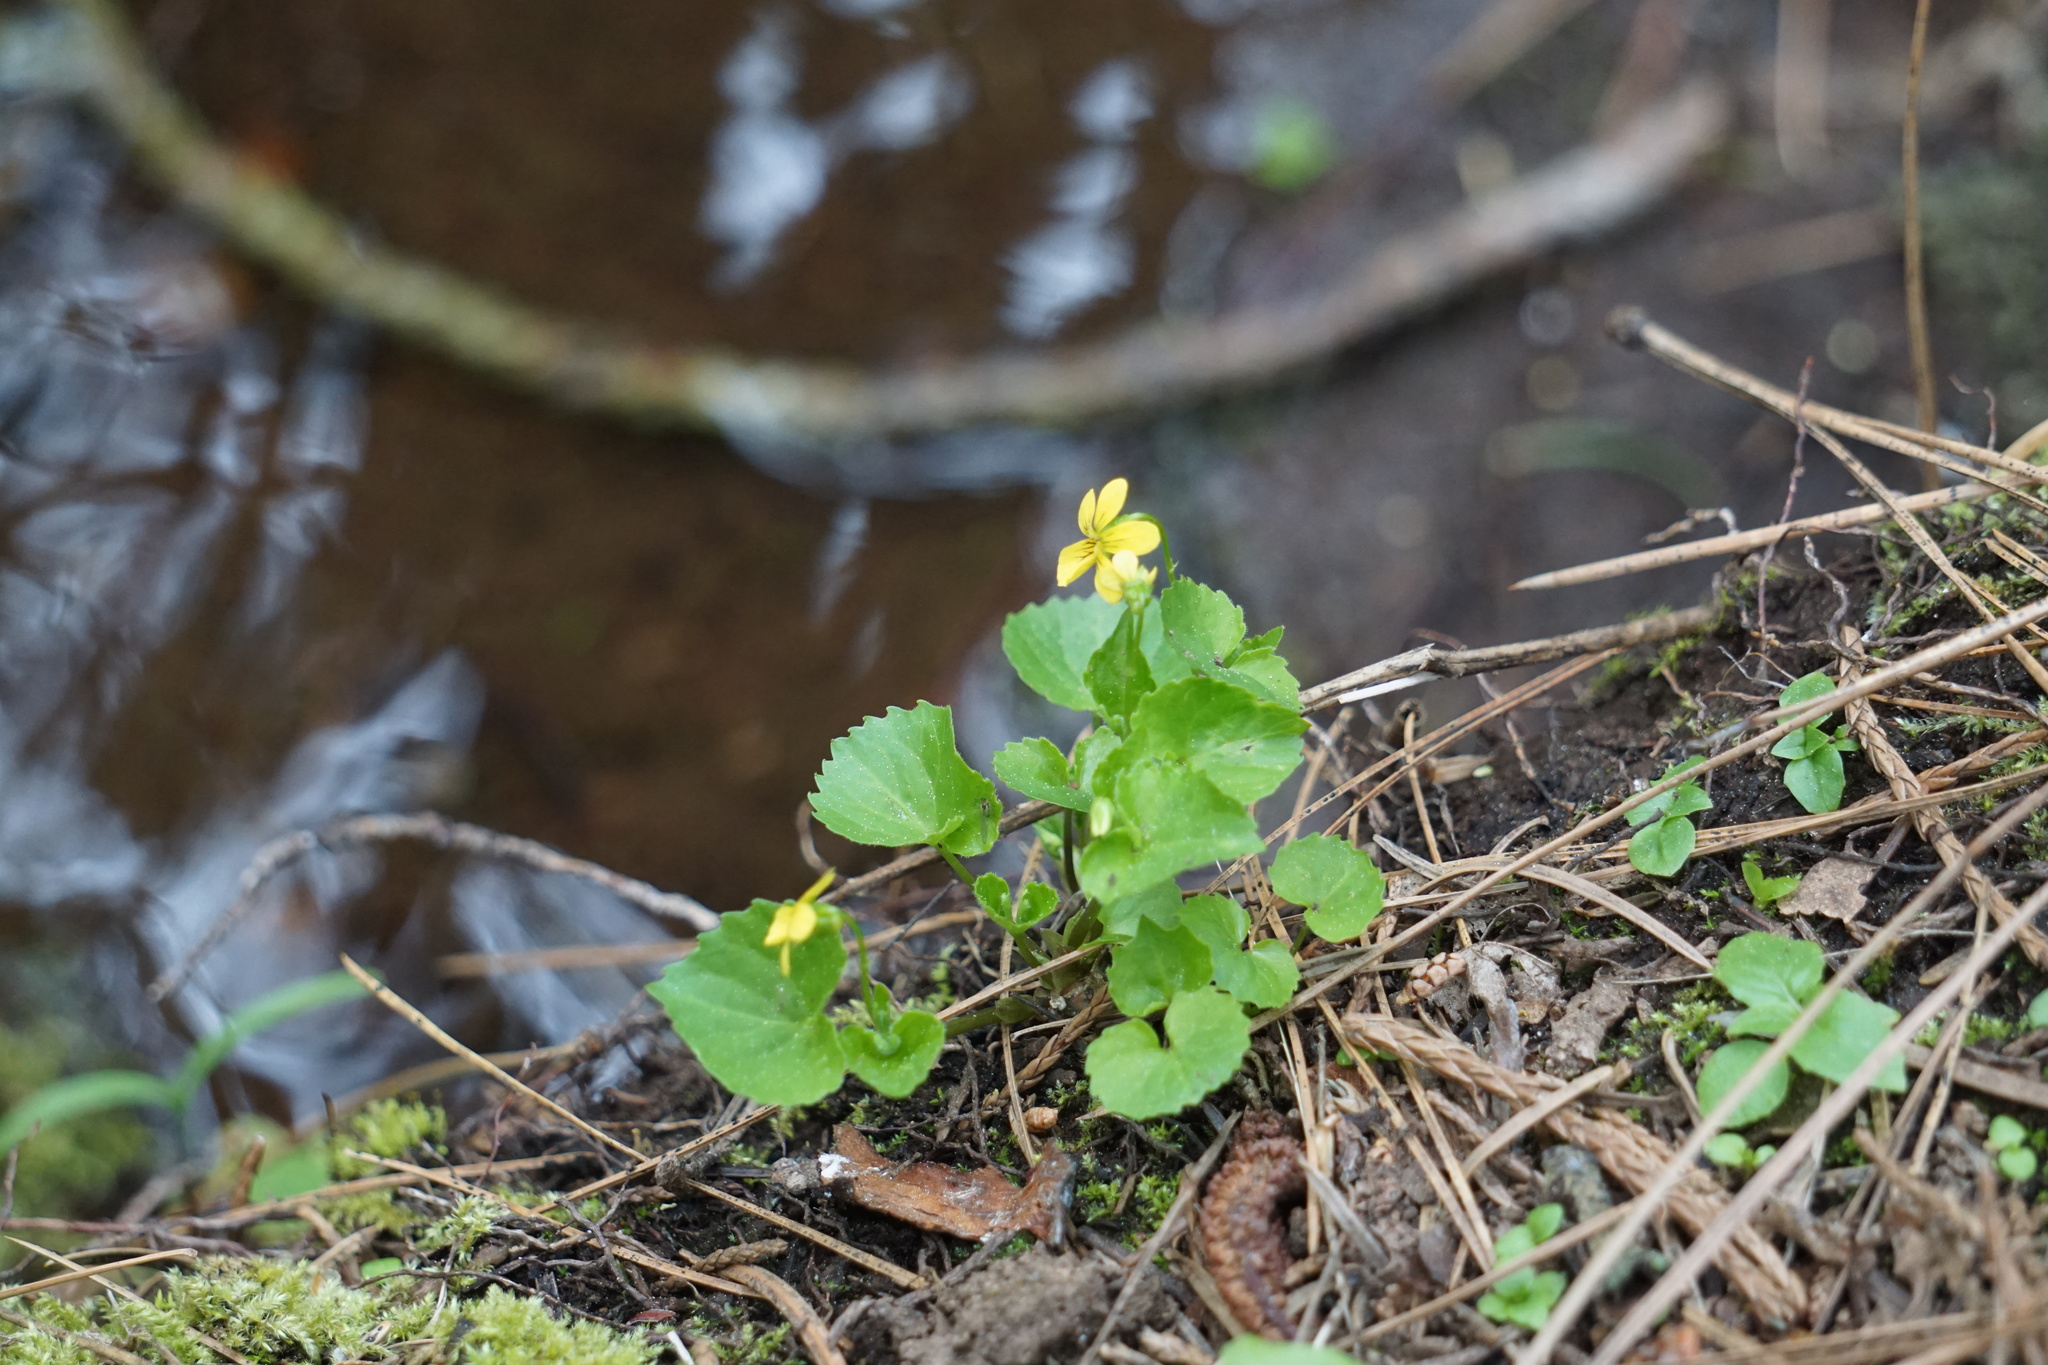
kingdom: Plantae
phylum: Tracheophyta
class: Magnoliopsida
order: Malpighiales
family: Violaceae
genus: Viola
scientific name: Viola glabella
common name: Stream violet
